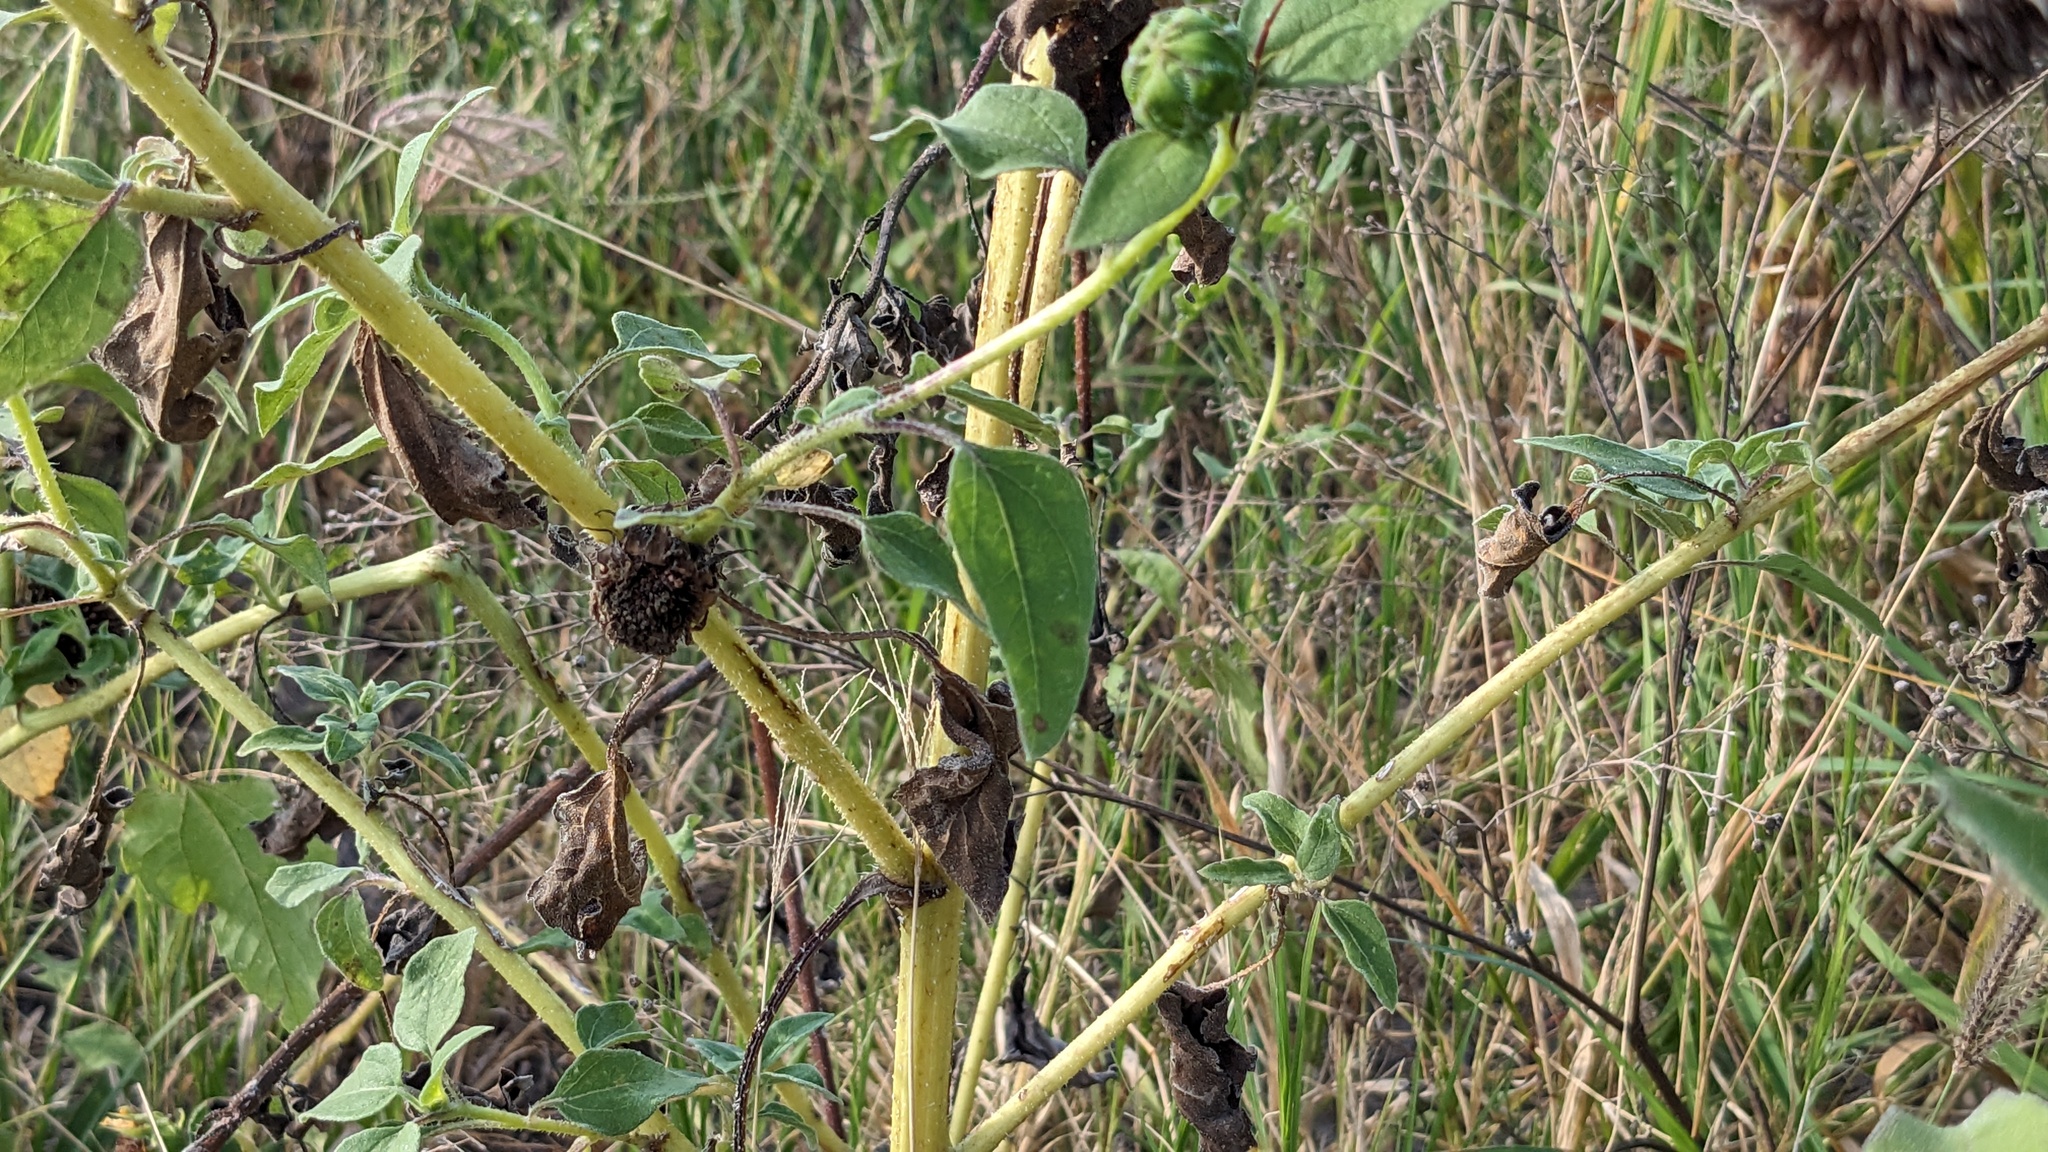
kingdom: Plantae
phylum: Tracheophyta
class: Magnoliopsida
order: Asterales
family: Asteraceae
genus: Helianthus
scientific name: Helianthus annuus
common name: Sunflower
